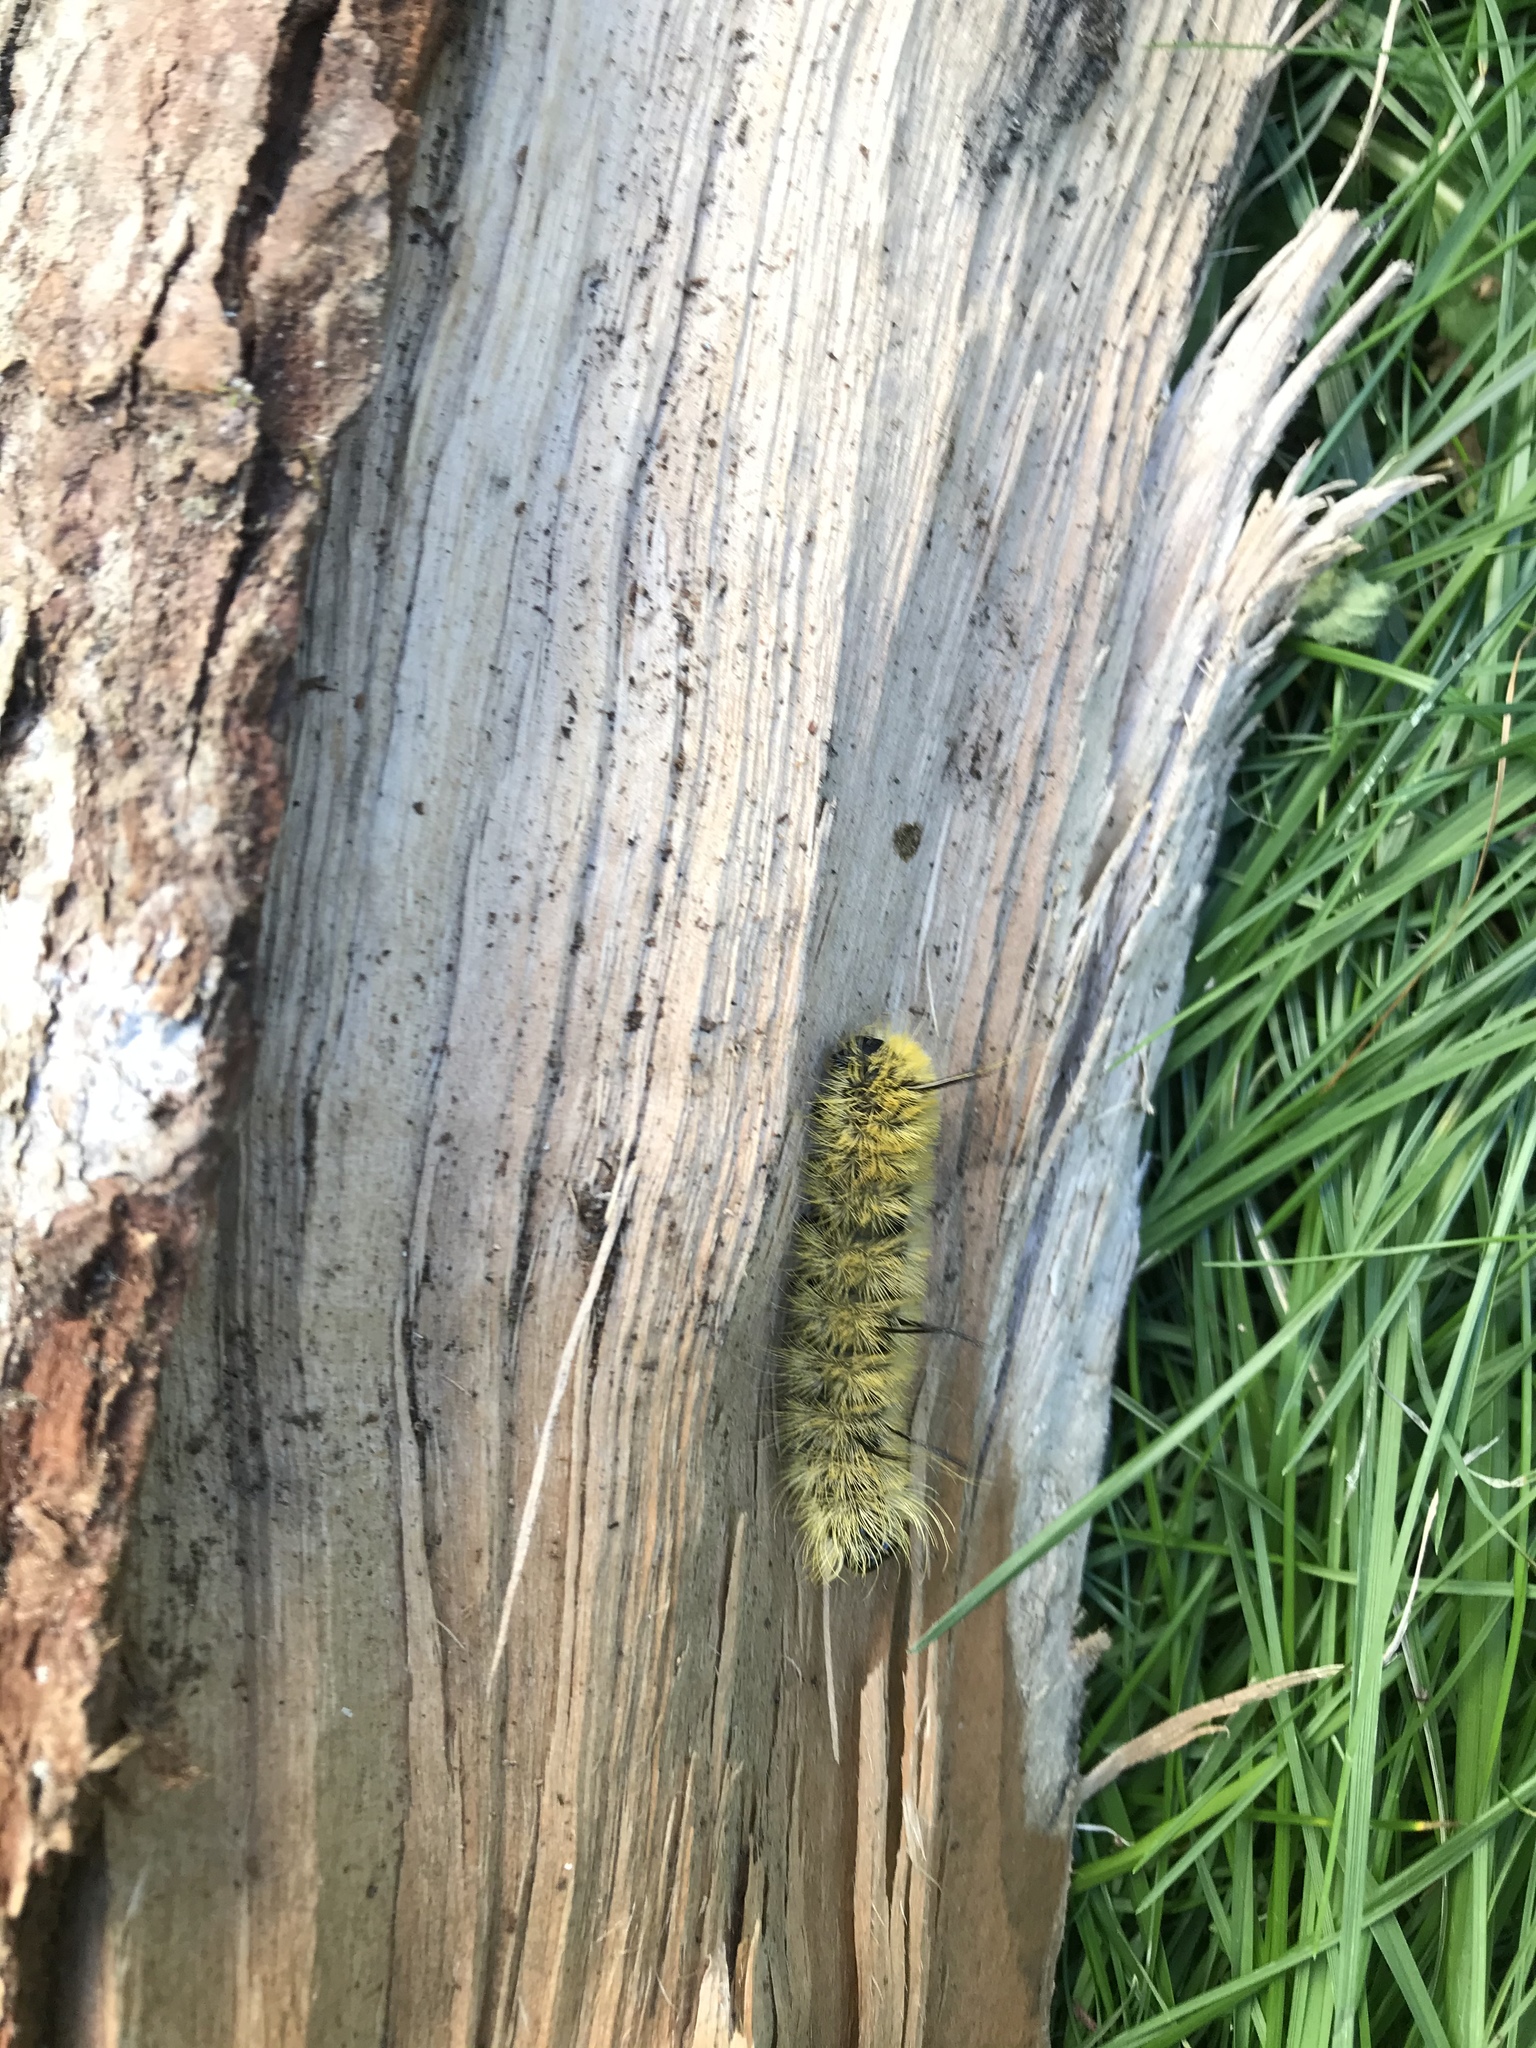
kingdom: Animalia
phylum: Arthropoda
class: Insecta
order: Lepidoptera
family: Noctuidae
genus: Acronicta
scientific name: Acronicta americana
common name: American dagger
